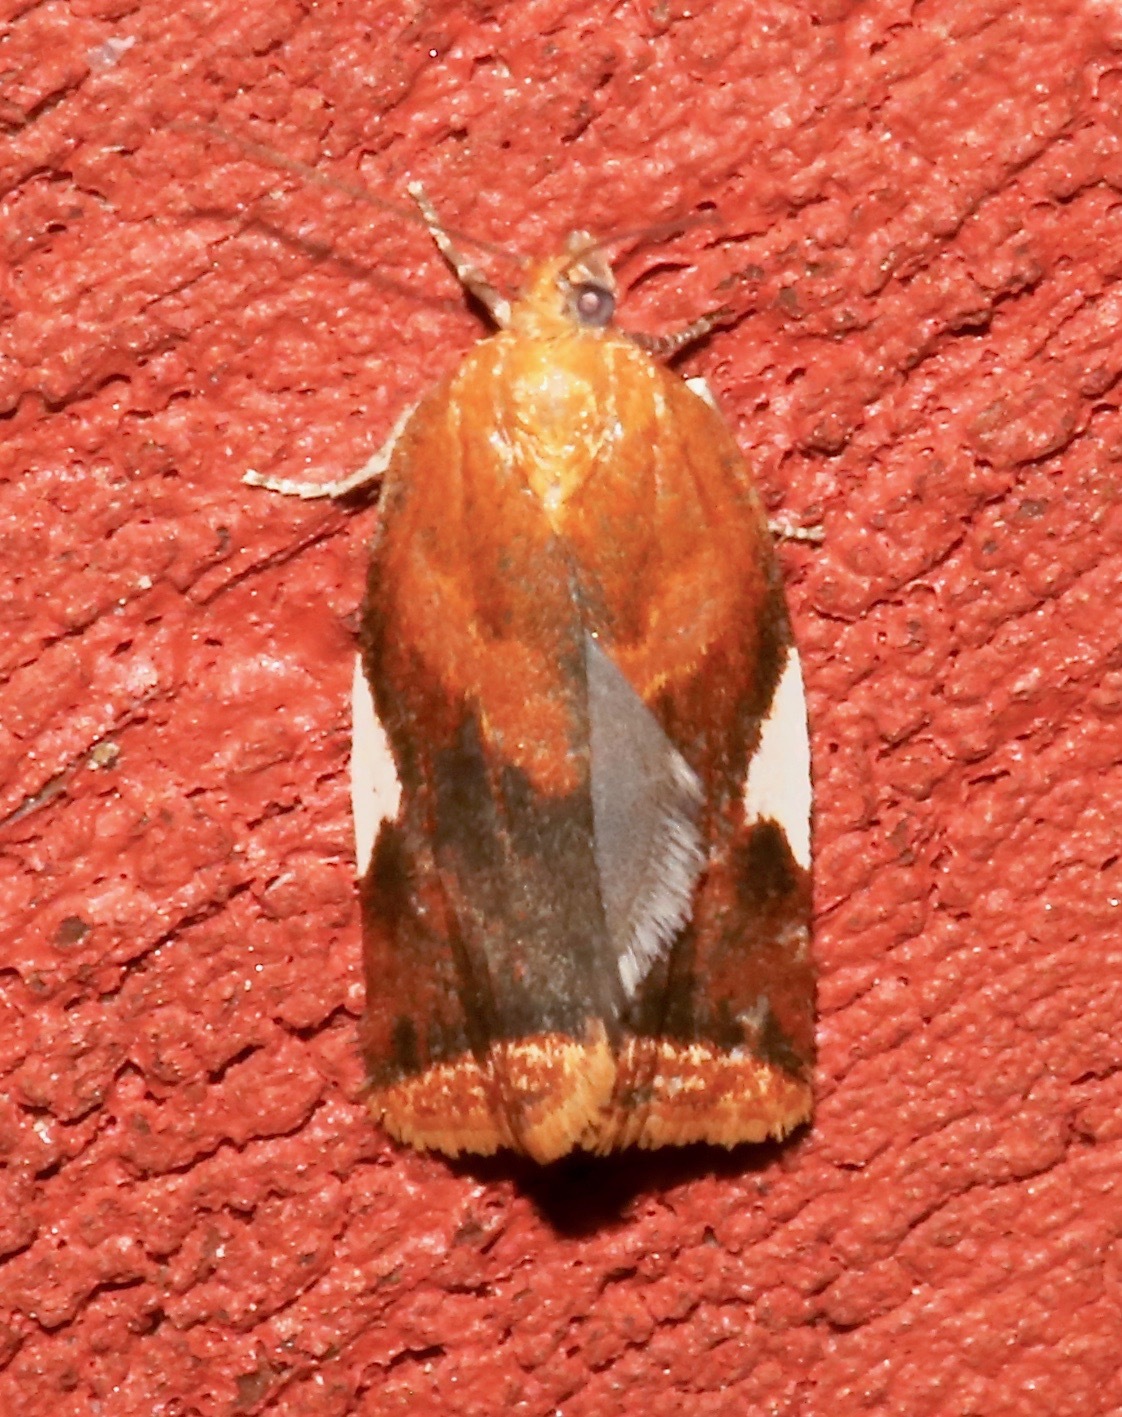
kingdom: Animalia
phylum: Arthropoda
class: Insecta
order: Lepidoptera
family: Tortricidae
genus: Clepsis
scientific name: Clepsis persicana
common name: White triangle tortrix
